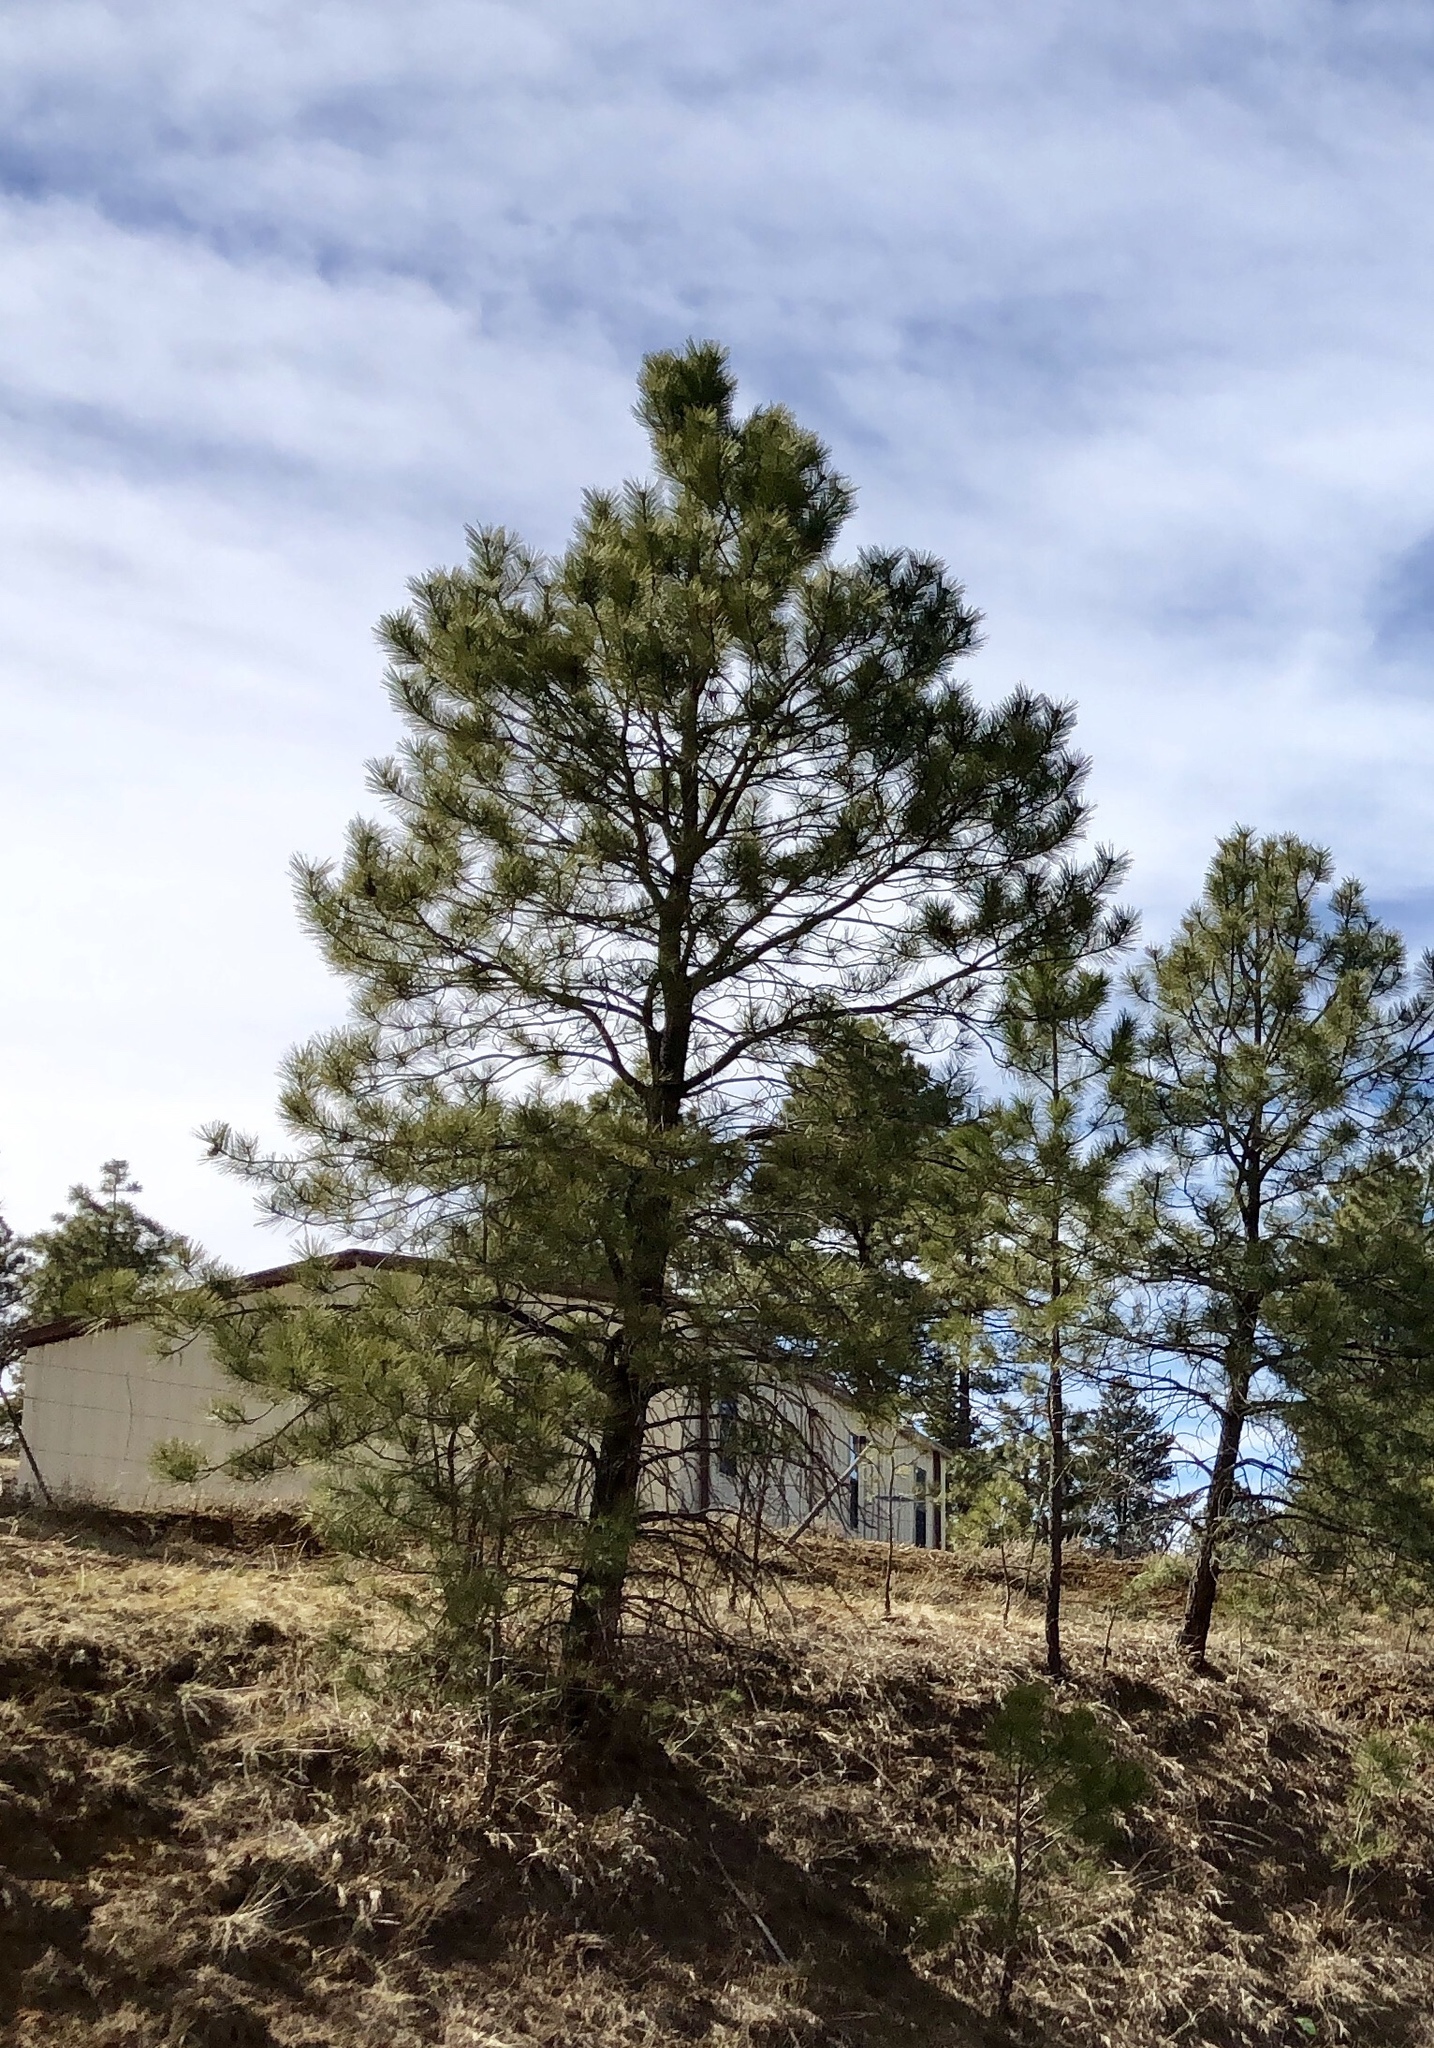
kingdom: Plantae
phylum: Tracheophyta
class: Pinopsida
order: Pinales
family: Pinaceae
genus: Pinus
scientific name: Pinus ponderosa
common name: Western yellow-pine
